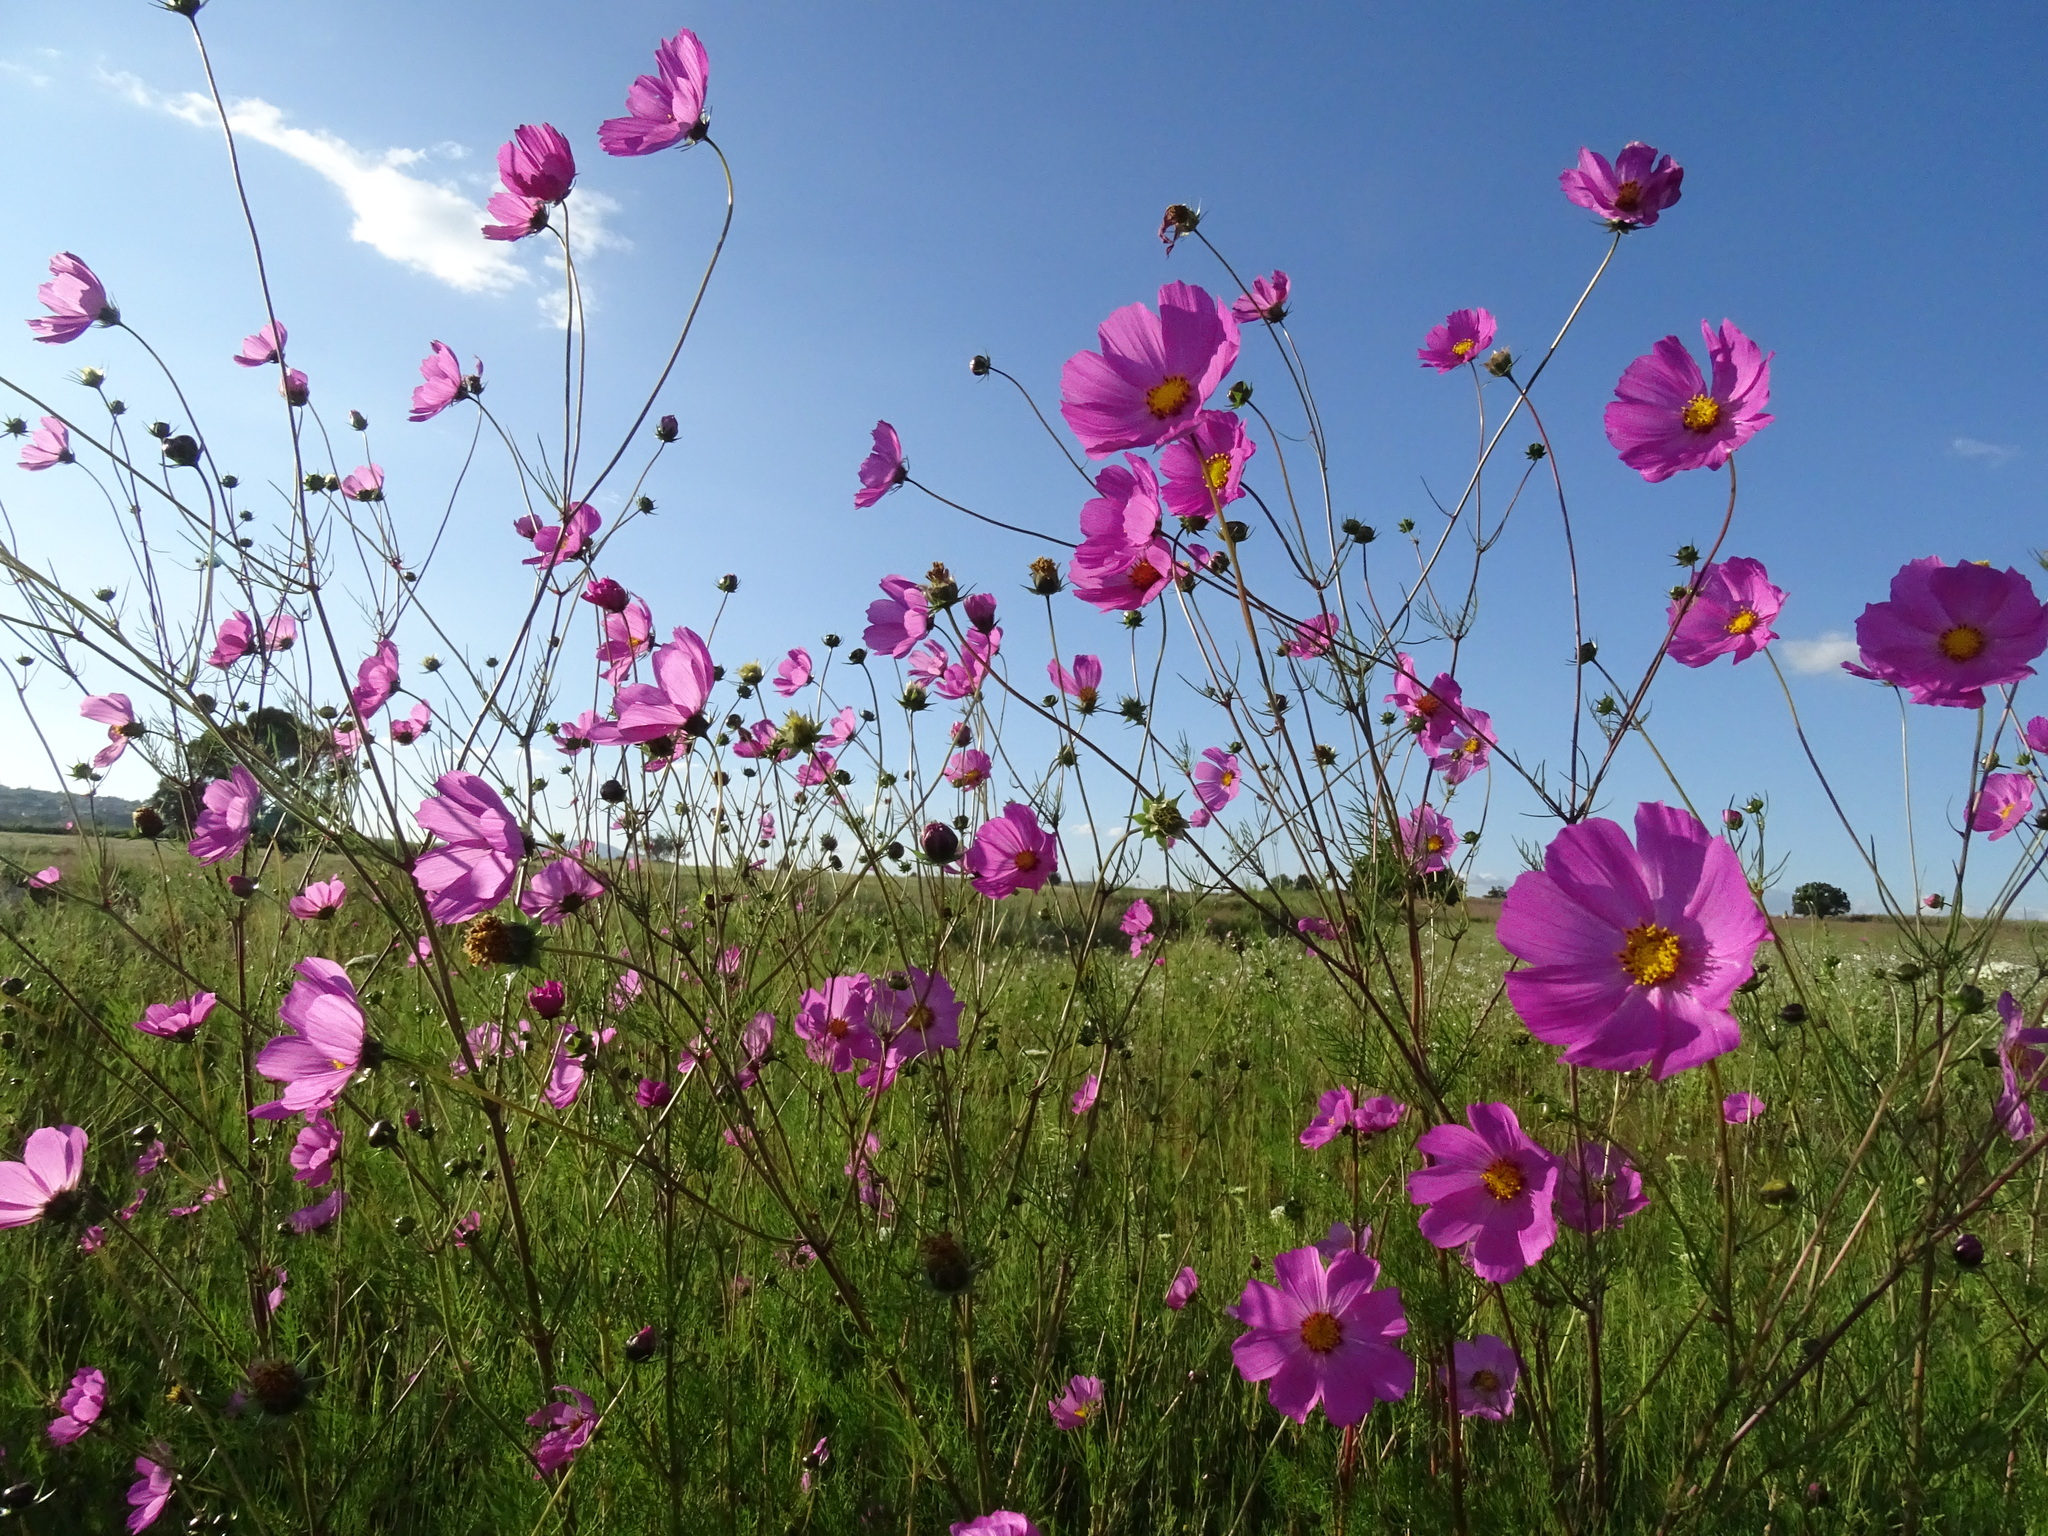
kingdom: Plantae
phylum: Tracheophyta
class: Magnoliopsida
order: Asterales
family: Asteraceae
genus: Cosmos
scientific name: Cosmos bipinnatus
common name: Garden cosmos
